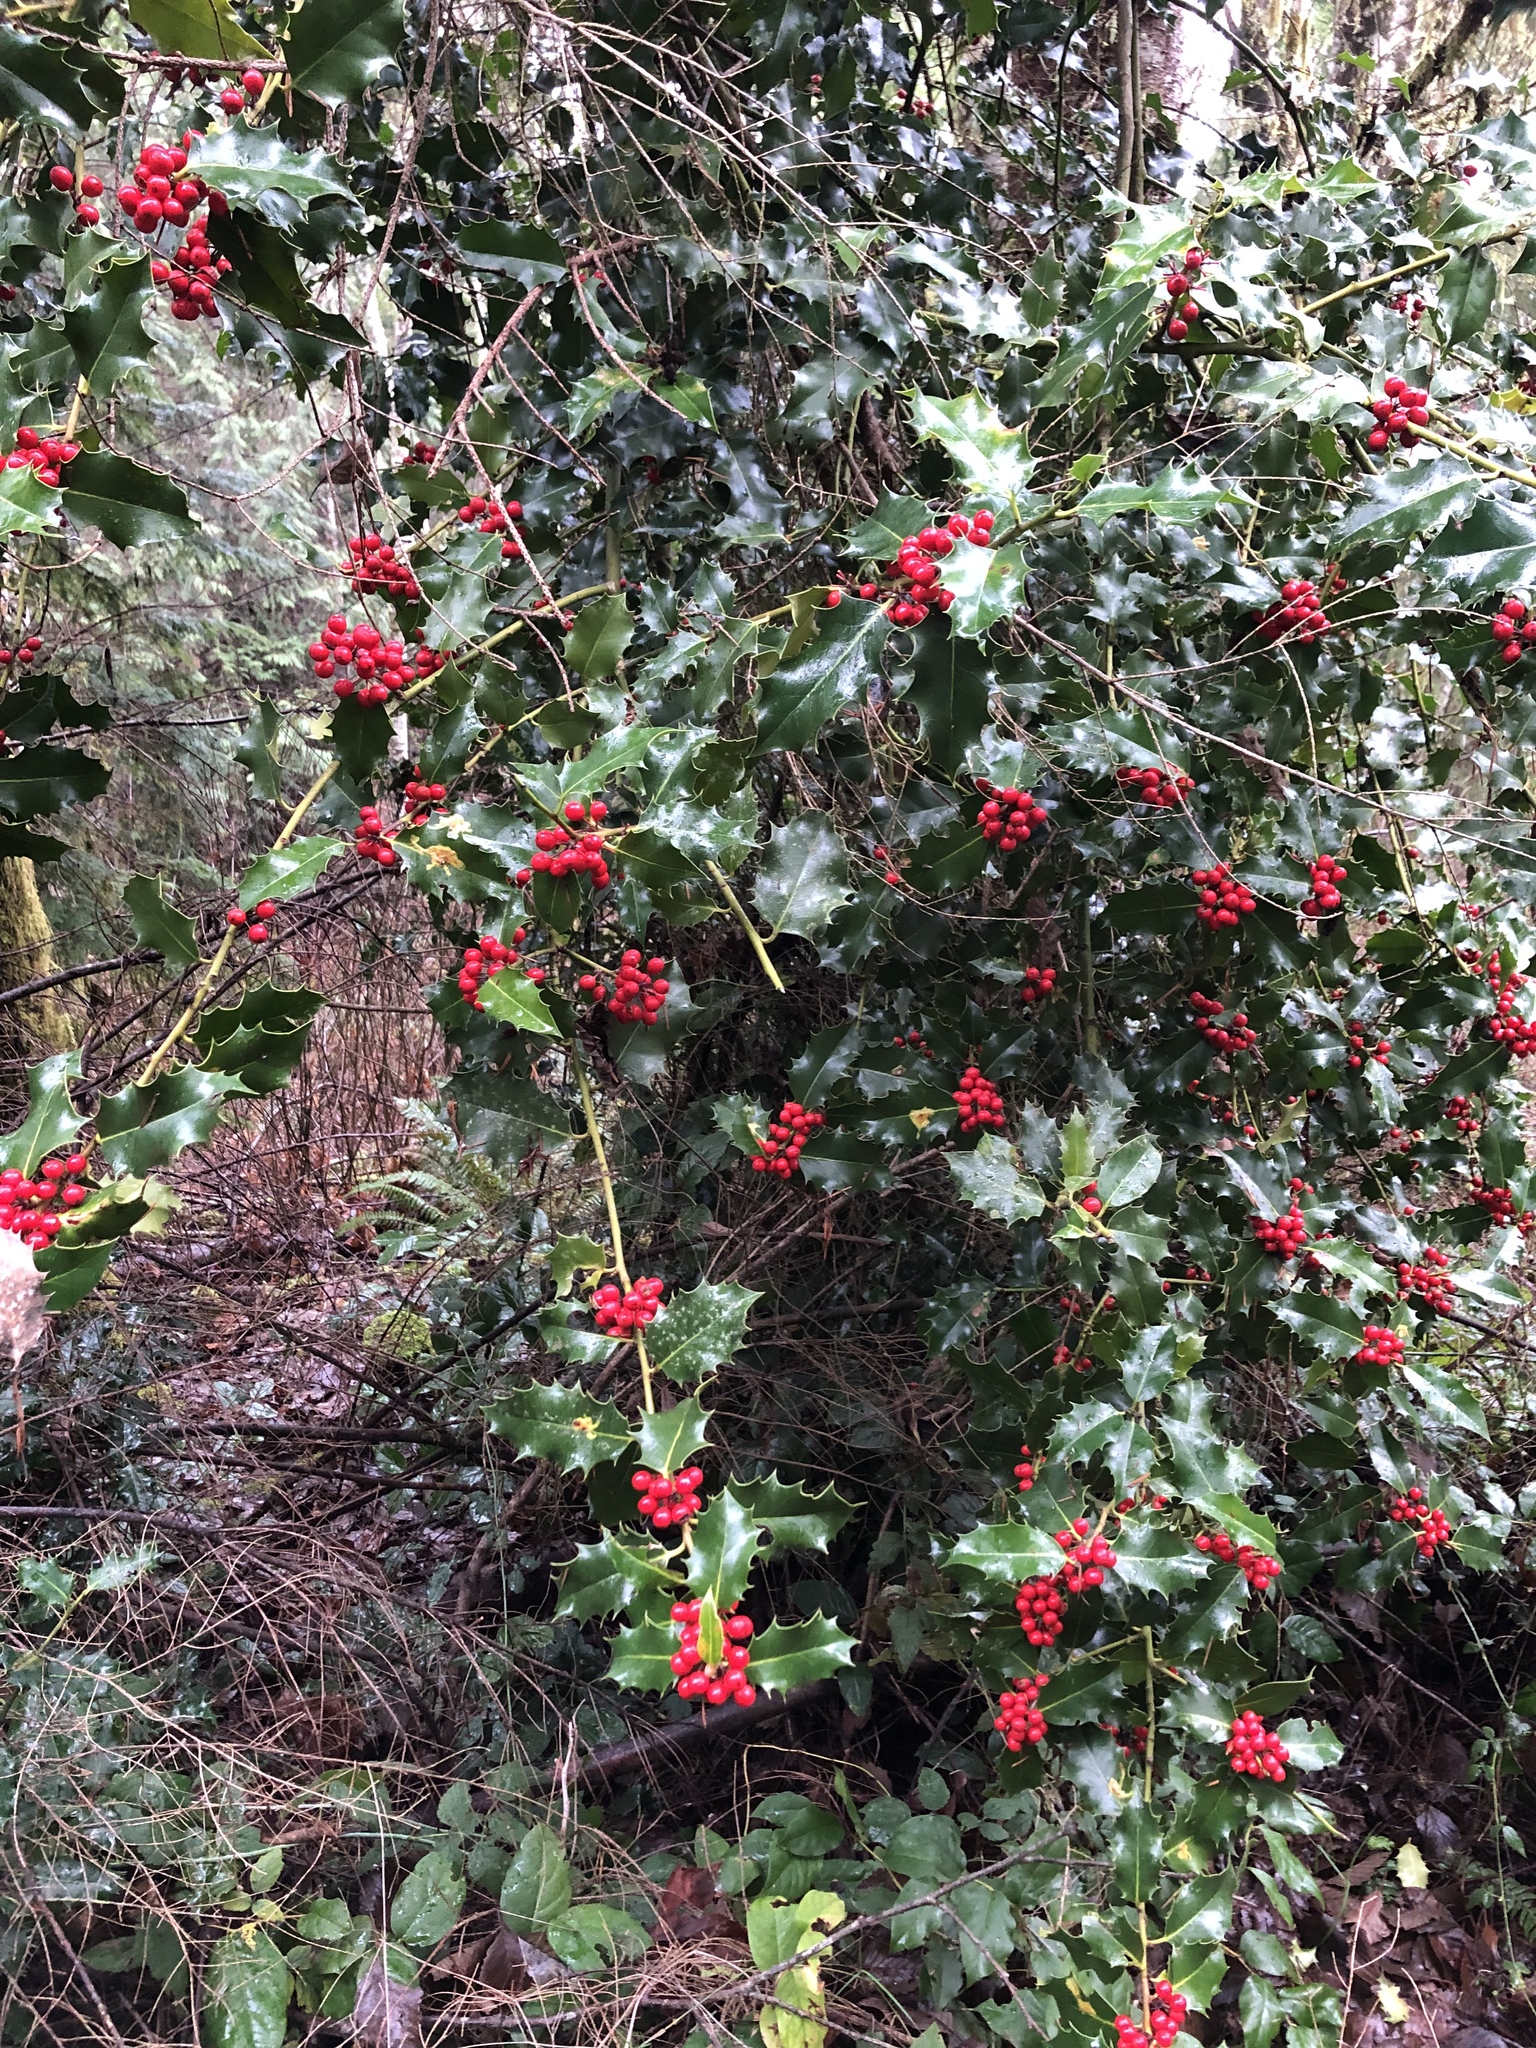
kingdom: Plantae
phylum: Tracheophyta
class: Magnoliopsida
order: Aquifoliales
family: Aquifoliaceae
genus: Ilex
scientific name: Ilex aquifolium
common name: English holly
